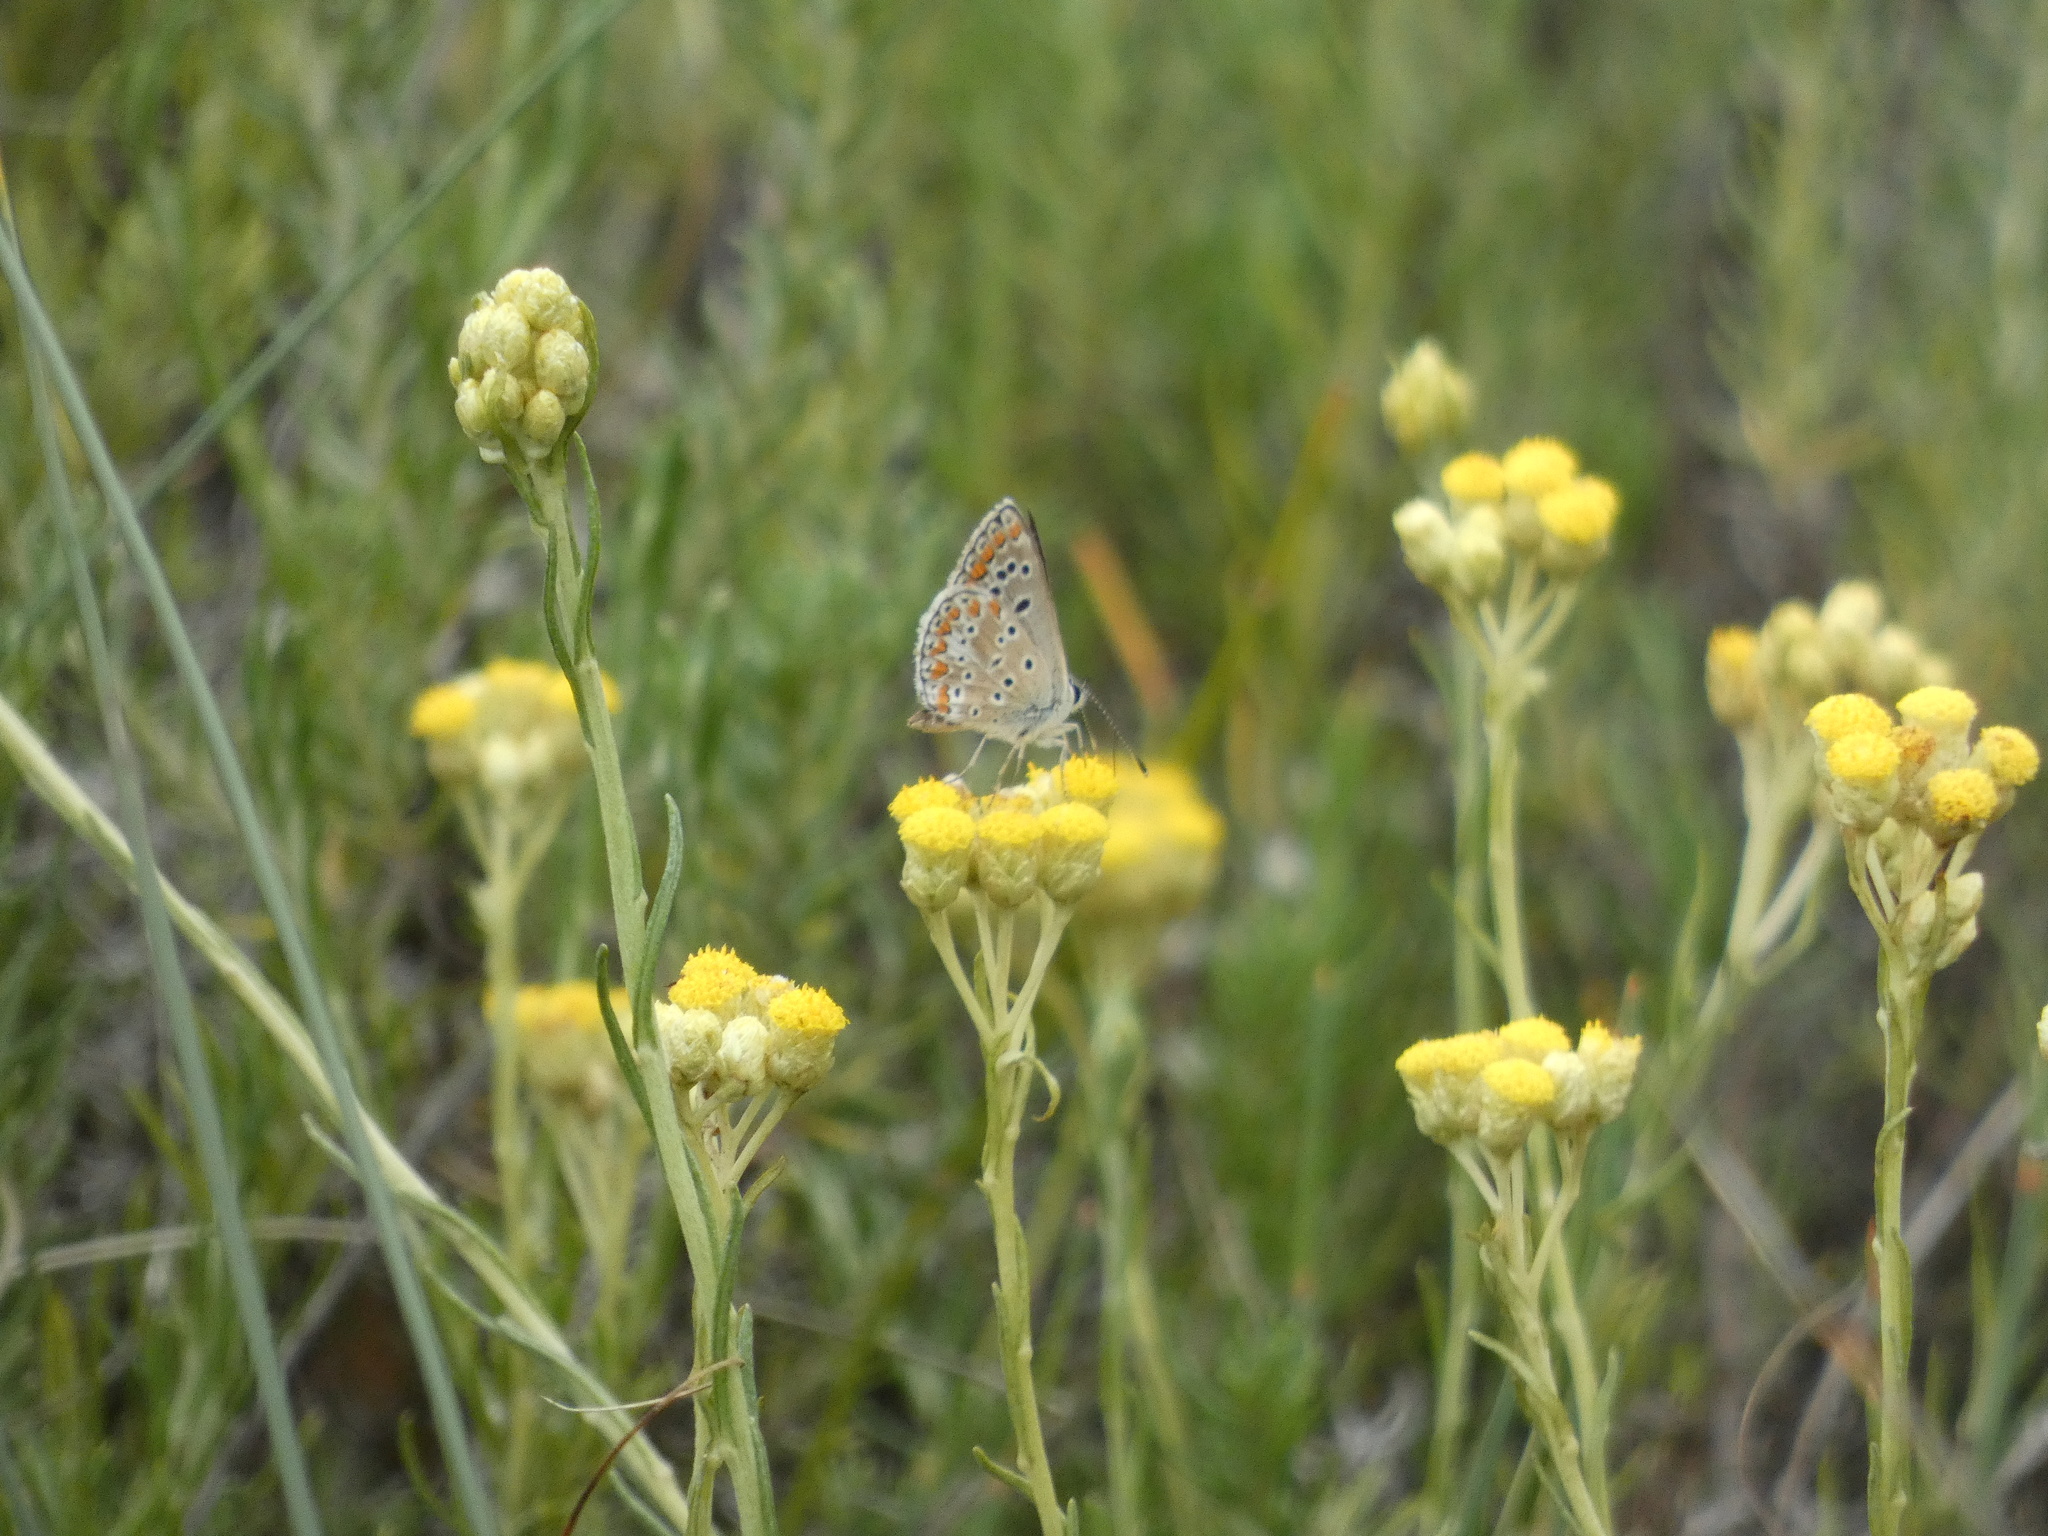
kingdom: Animalia
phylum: Arthropoda
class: Insecta
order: Lepidoptera
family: Lycaenidae
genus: Aricia
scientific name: Aricia agestis
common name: Brown argus
